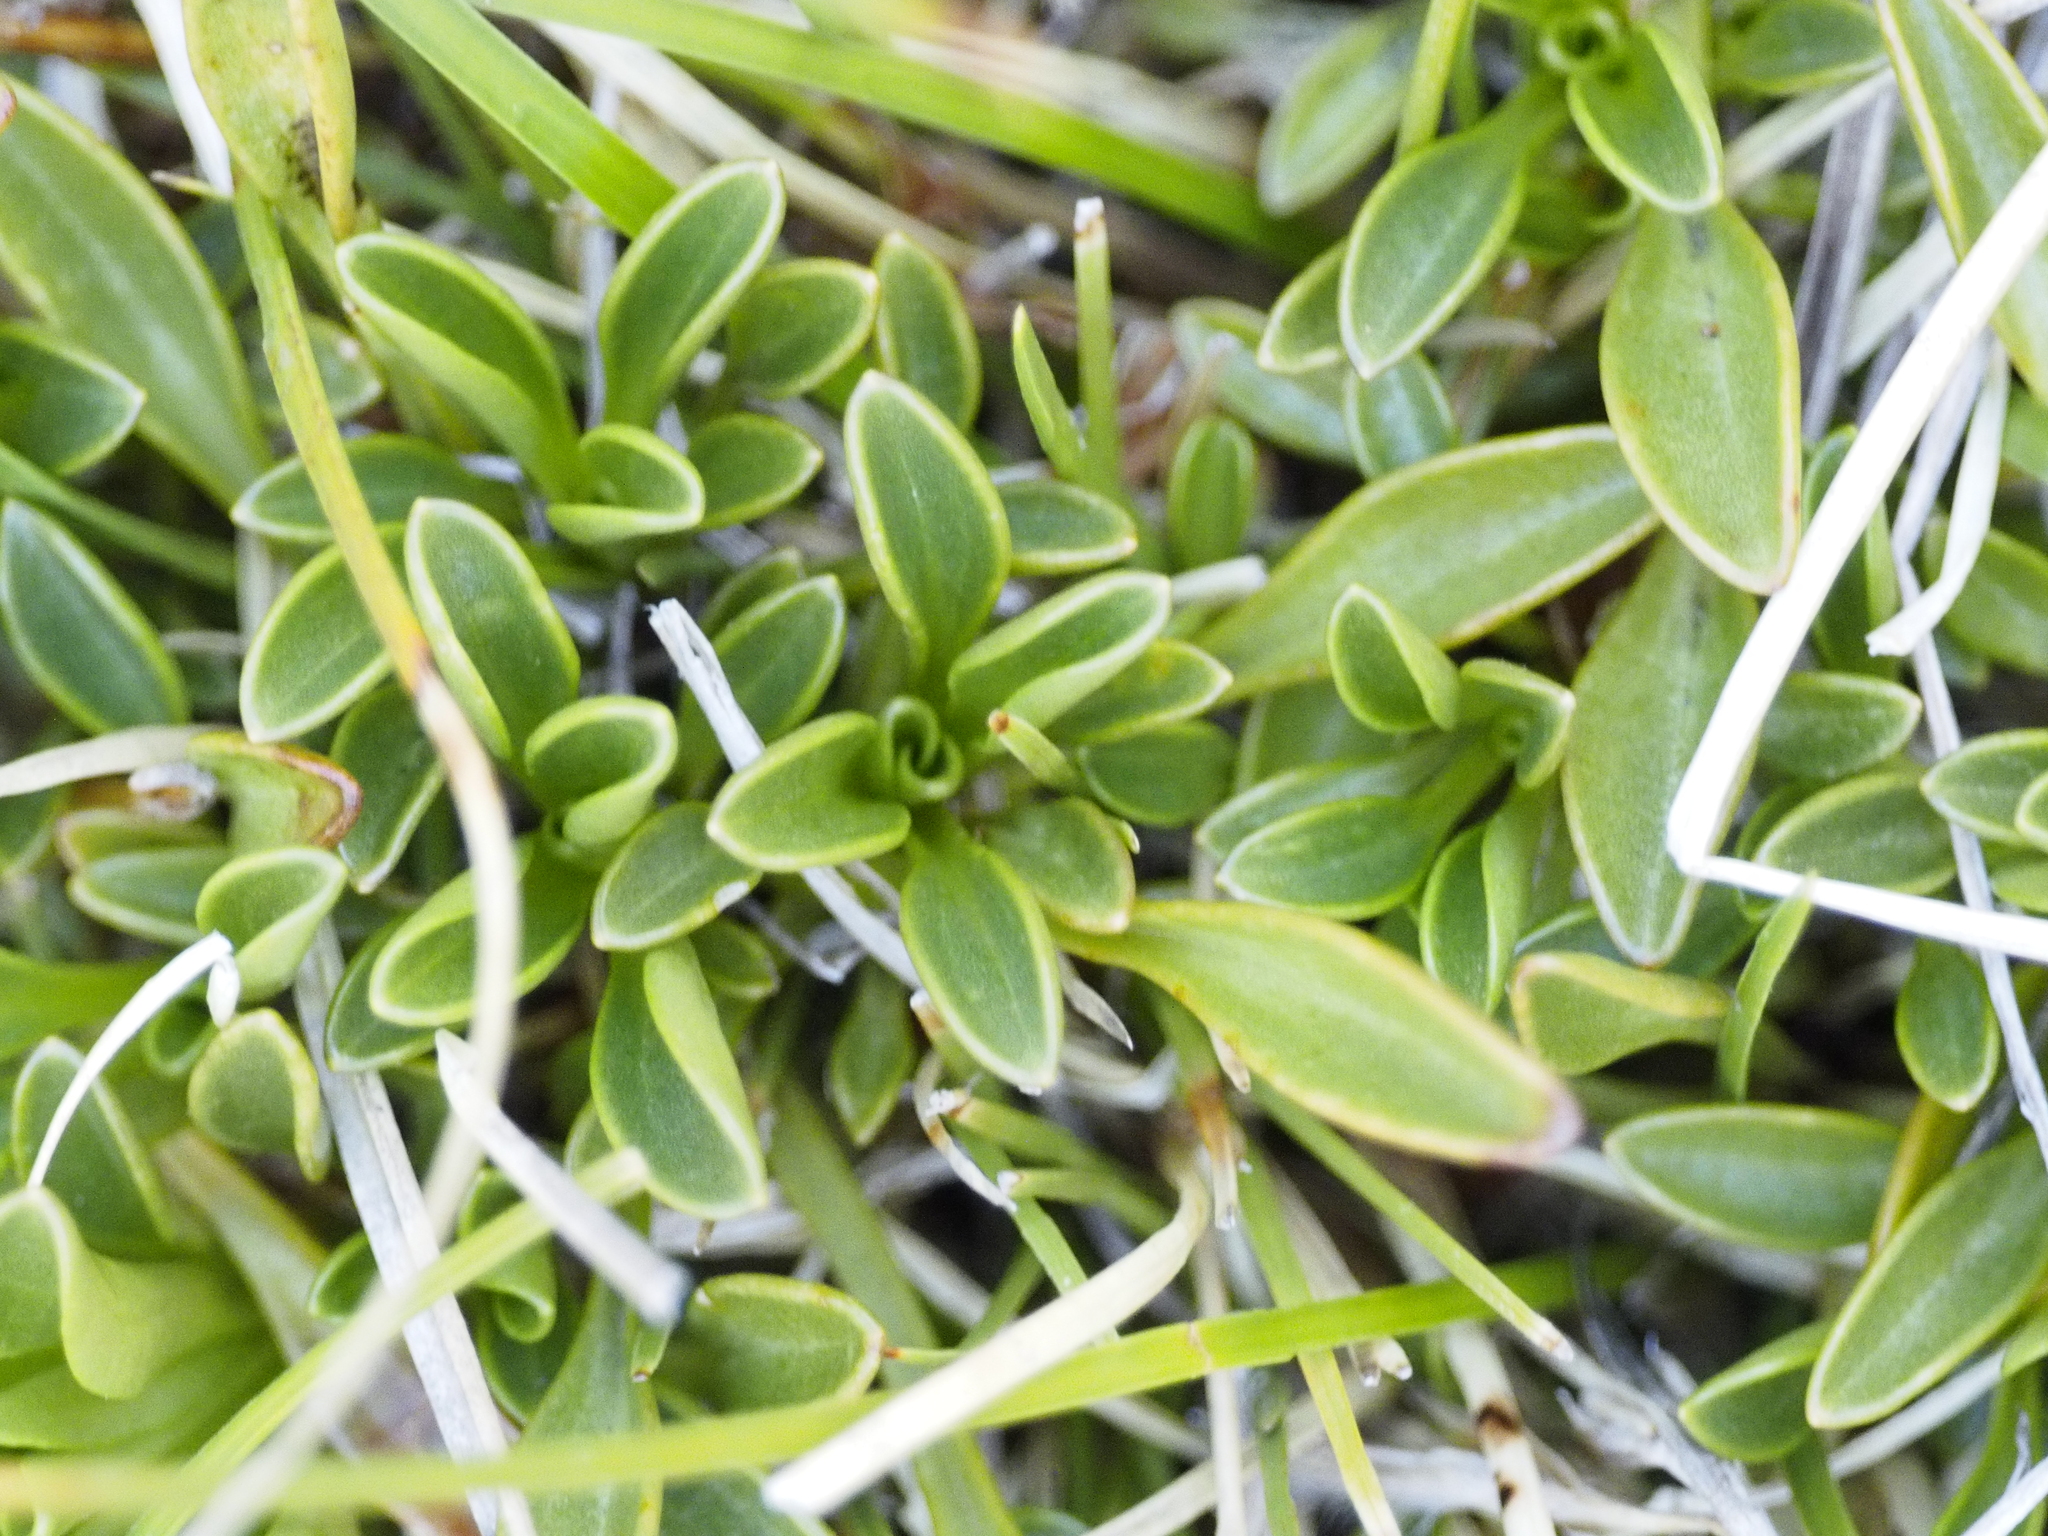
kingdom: Plantae
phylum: Tracheophyta
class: Magnoliopsida
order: Gentianales
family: Gentianaceae
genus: Gentianella
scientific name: Gentianella bellidifolia
